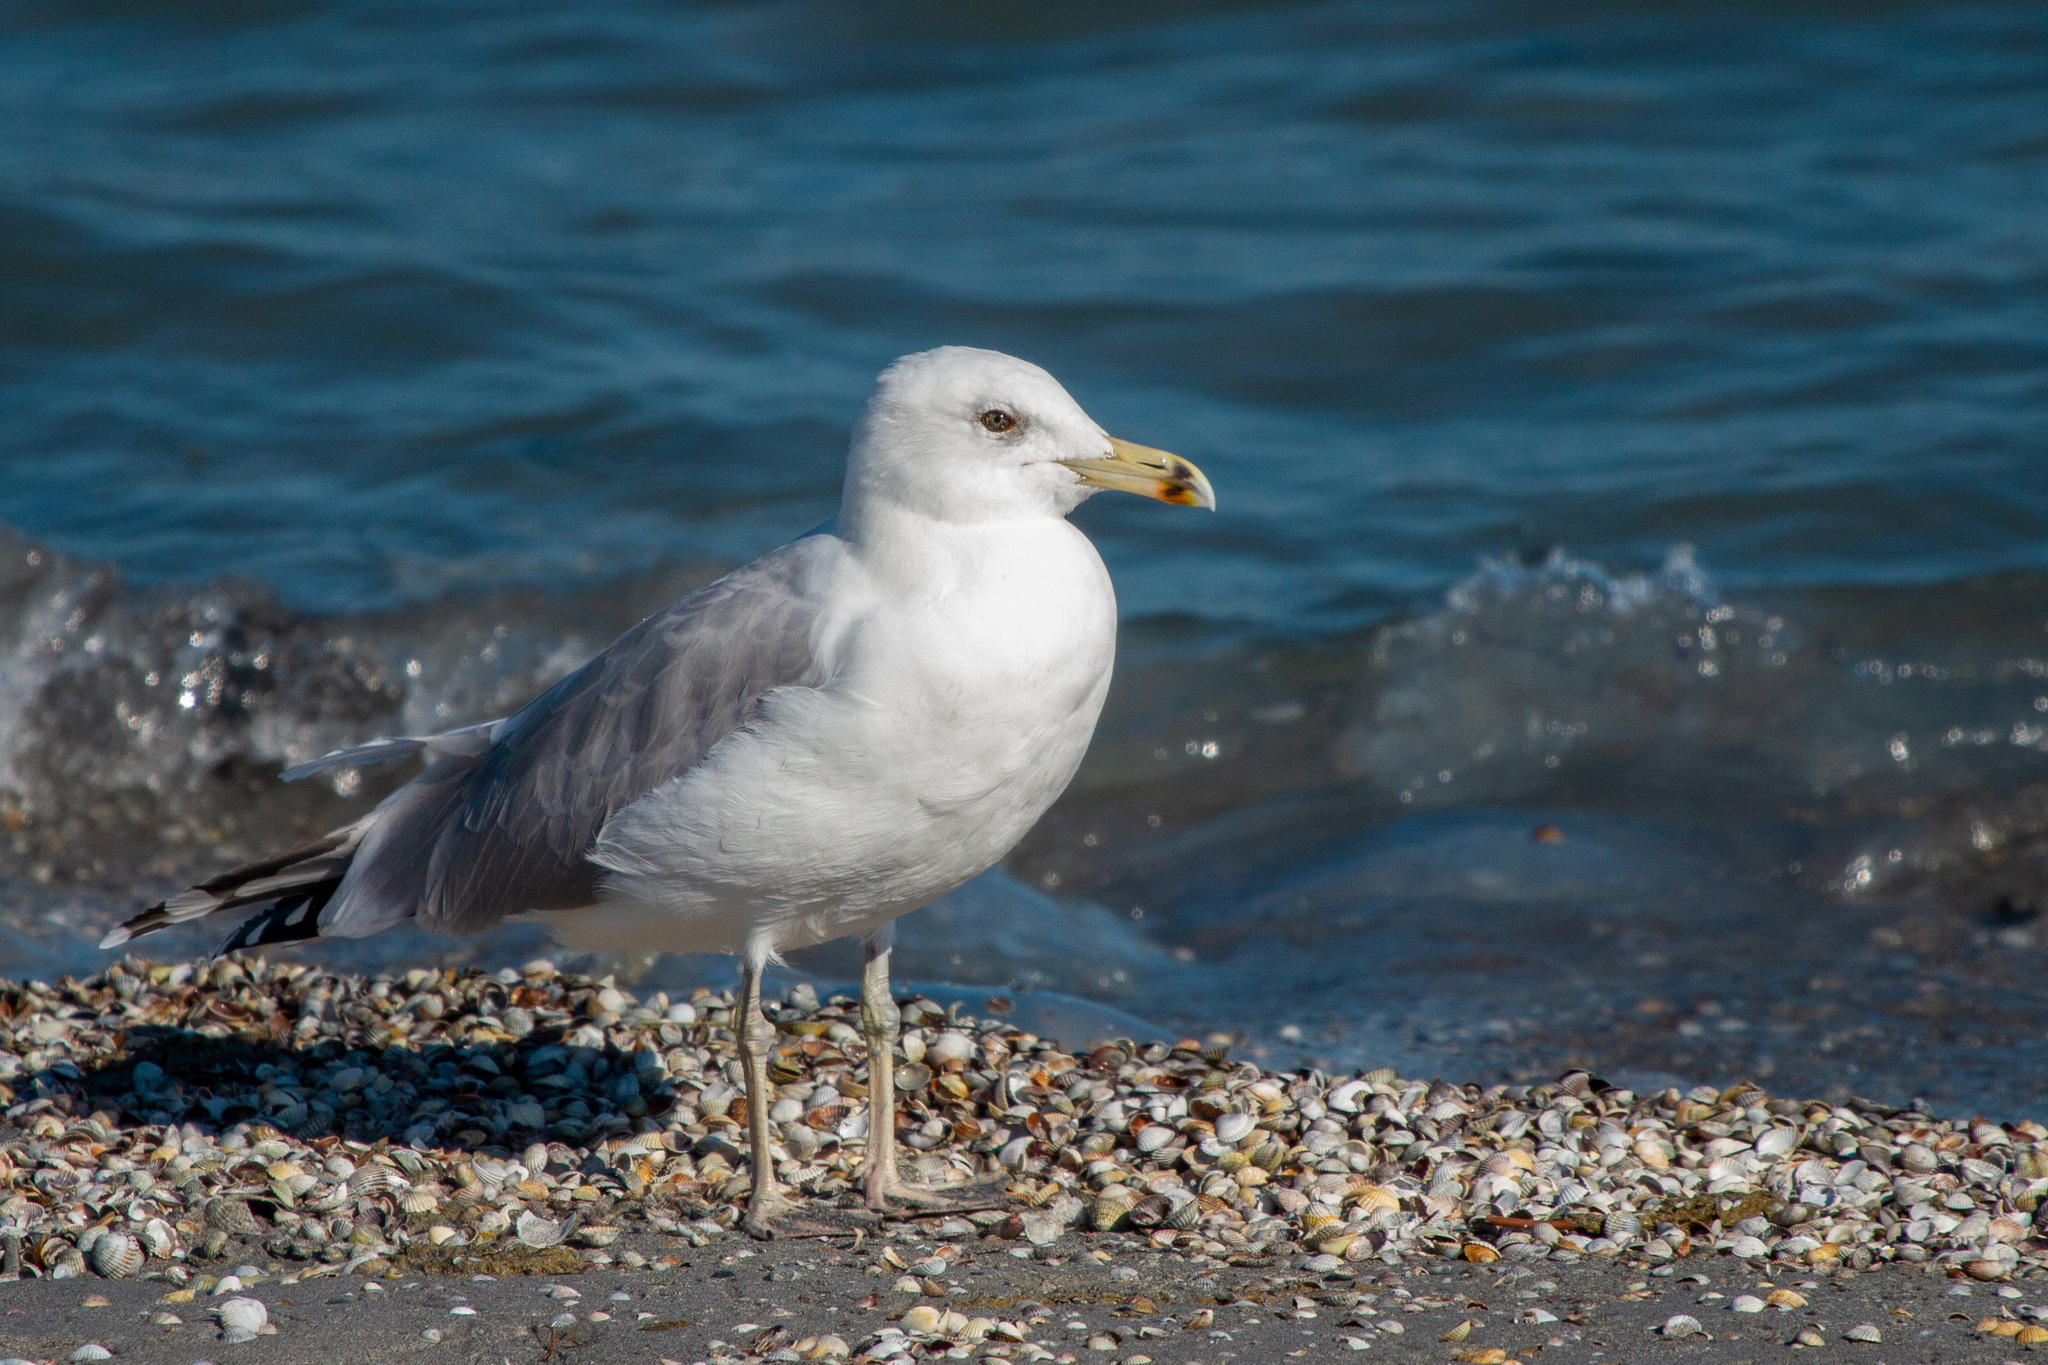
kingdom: Animalia
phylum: Chordata
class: Aves
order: Charadriiformes
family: Laridae
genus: Larus
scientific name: Larus michahellis
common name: Yellow-legged gull
